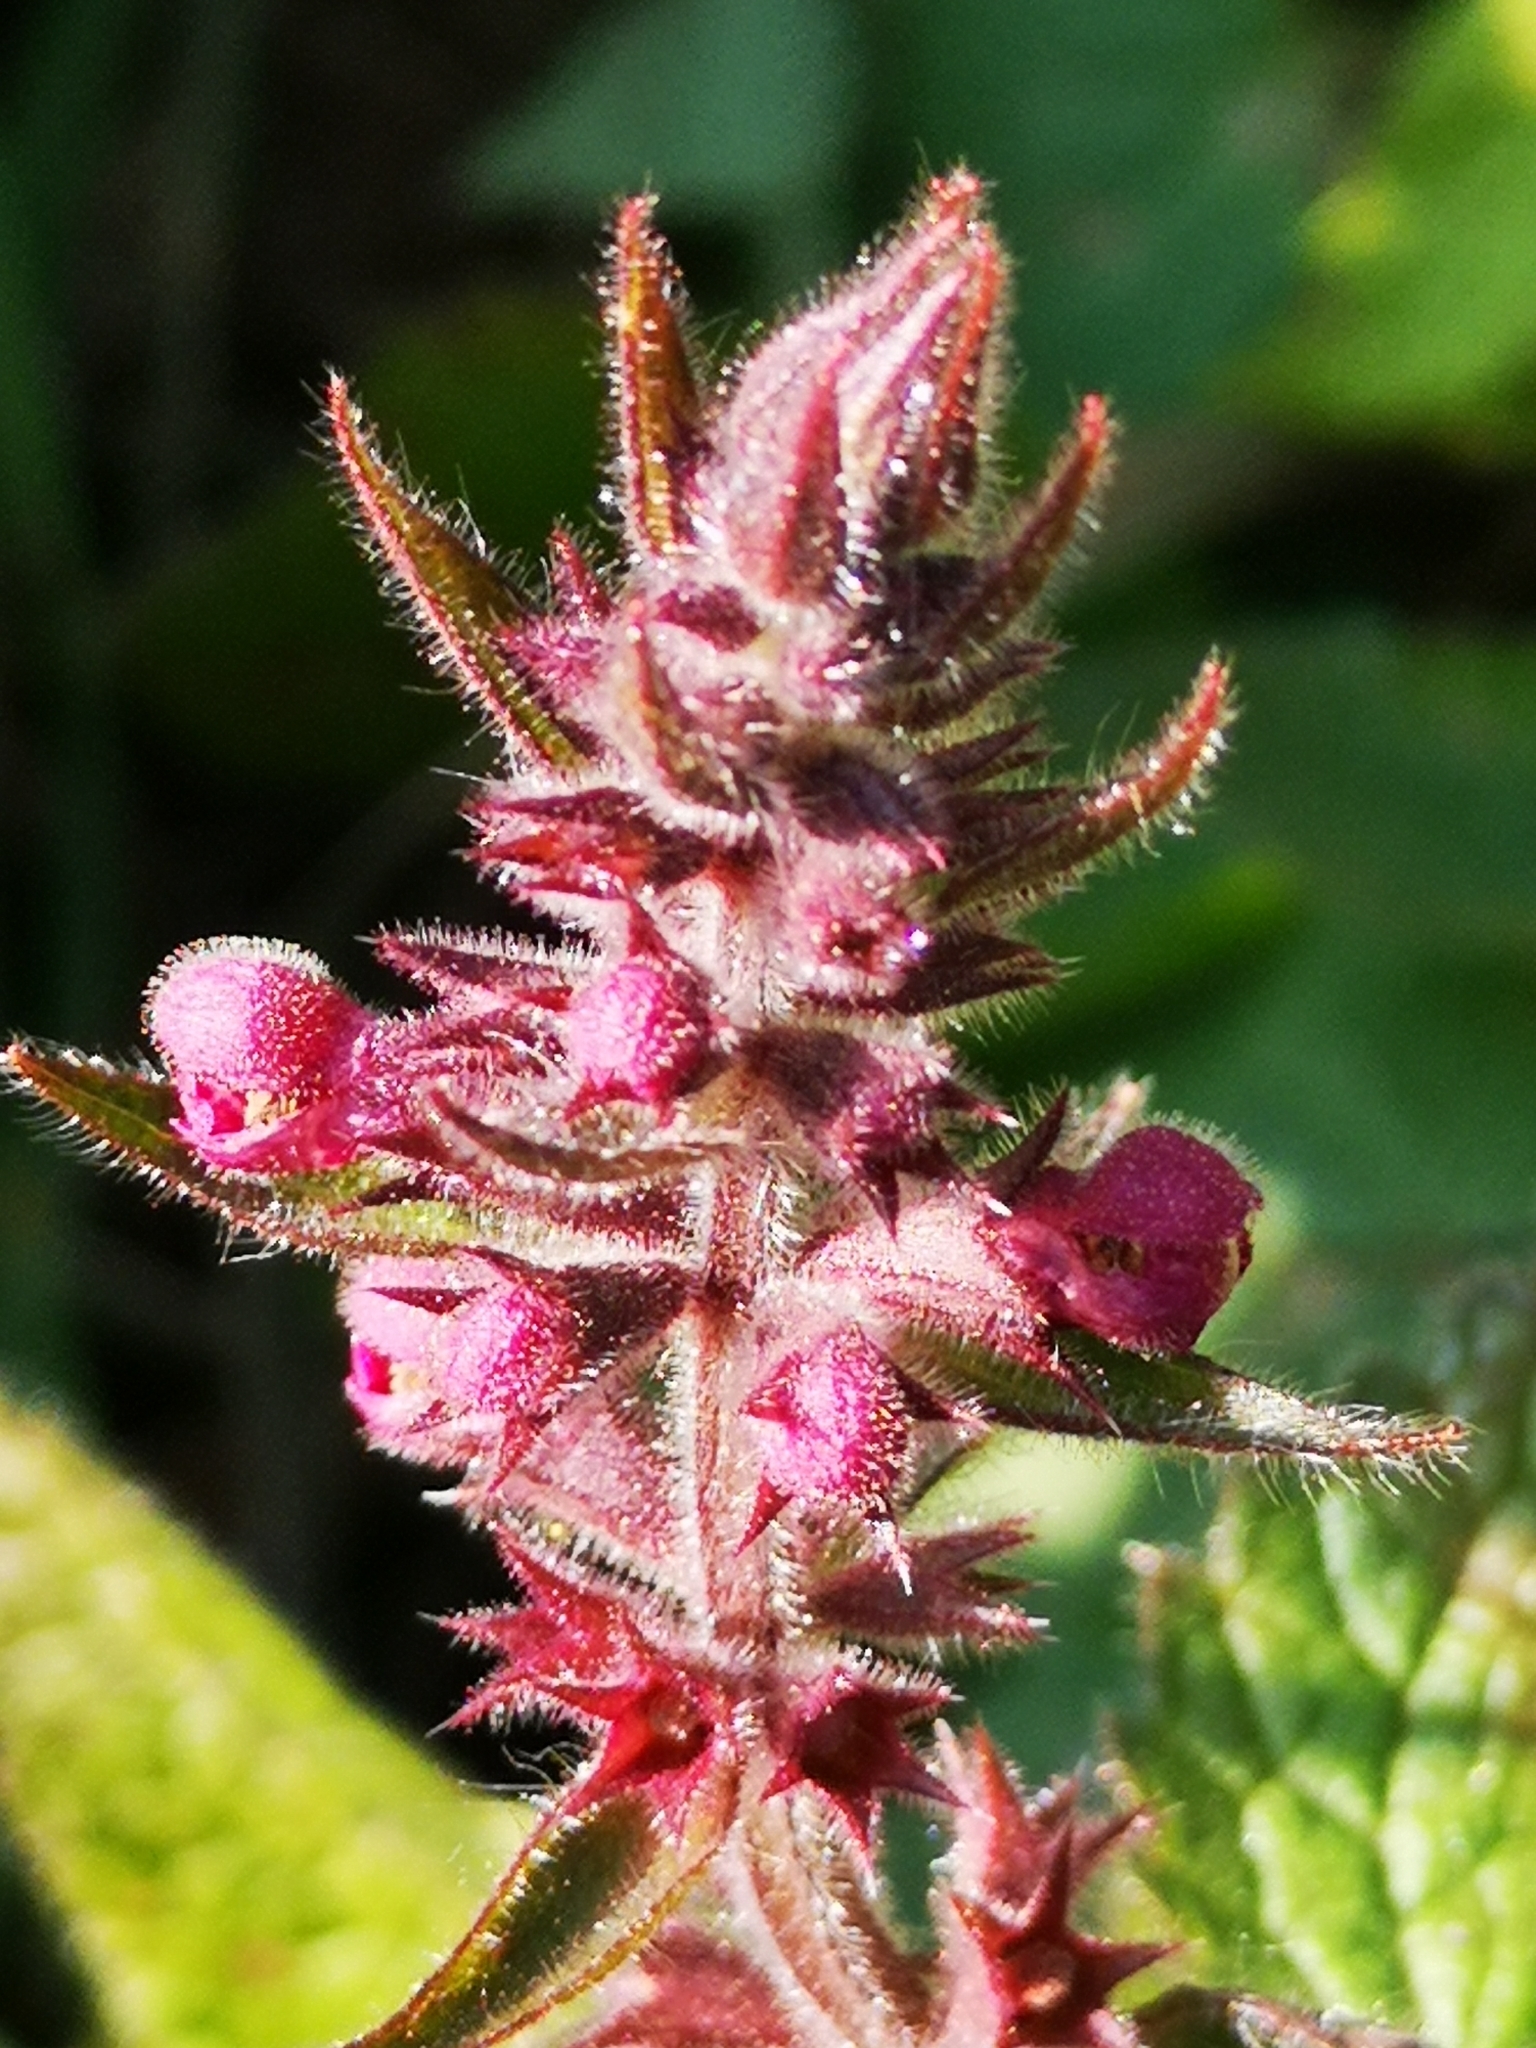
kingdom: Plantae
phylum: Tracheophyta
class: Magnoliopsida
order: Lamiales
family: Lamiaceae
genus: Stachys
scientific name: Stachys sylvatica
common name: Hedge woundwort
